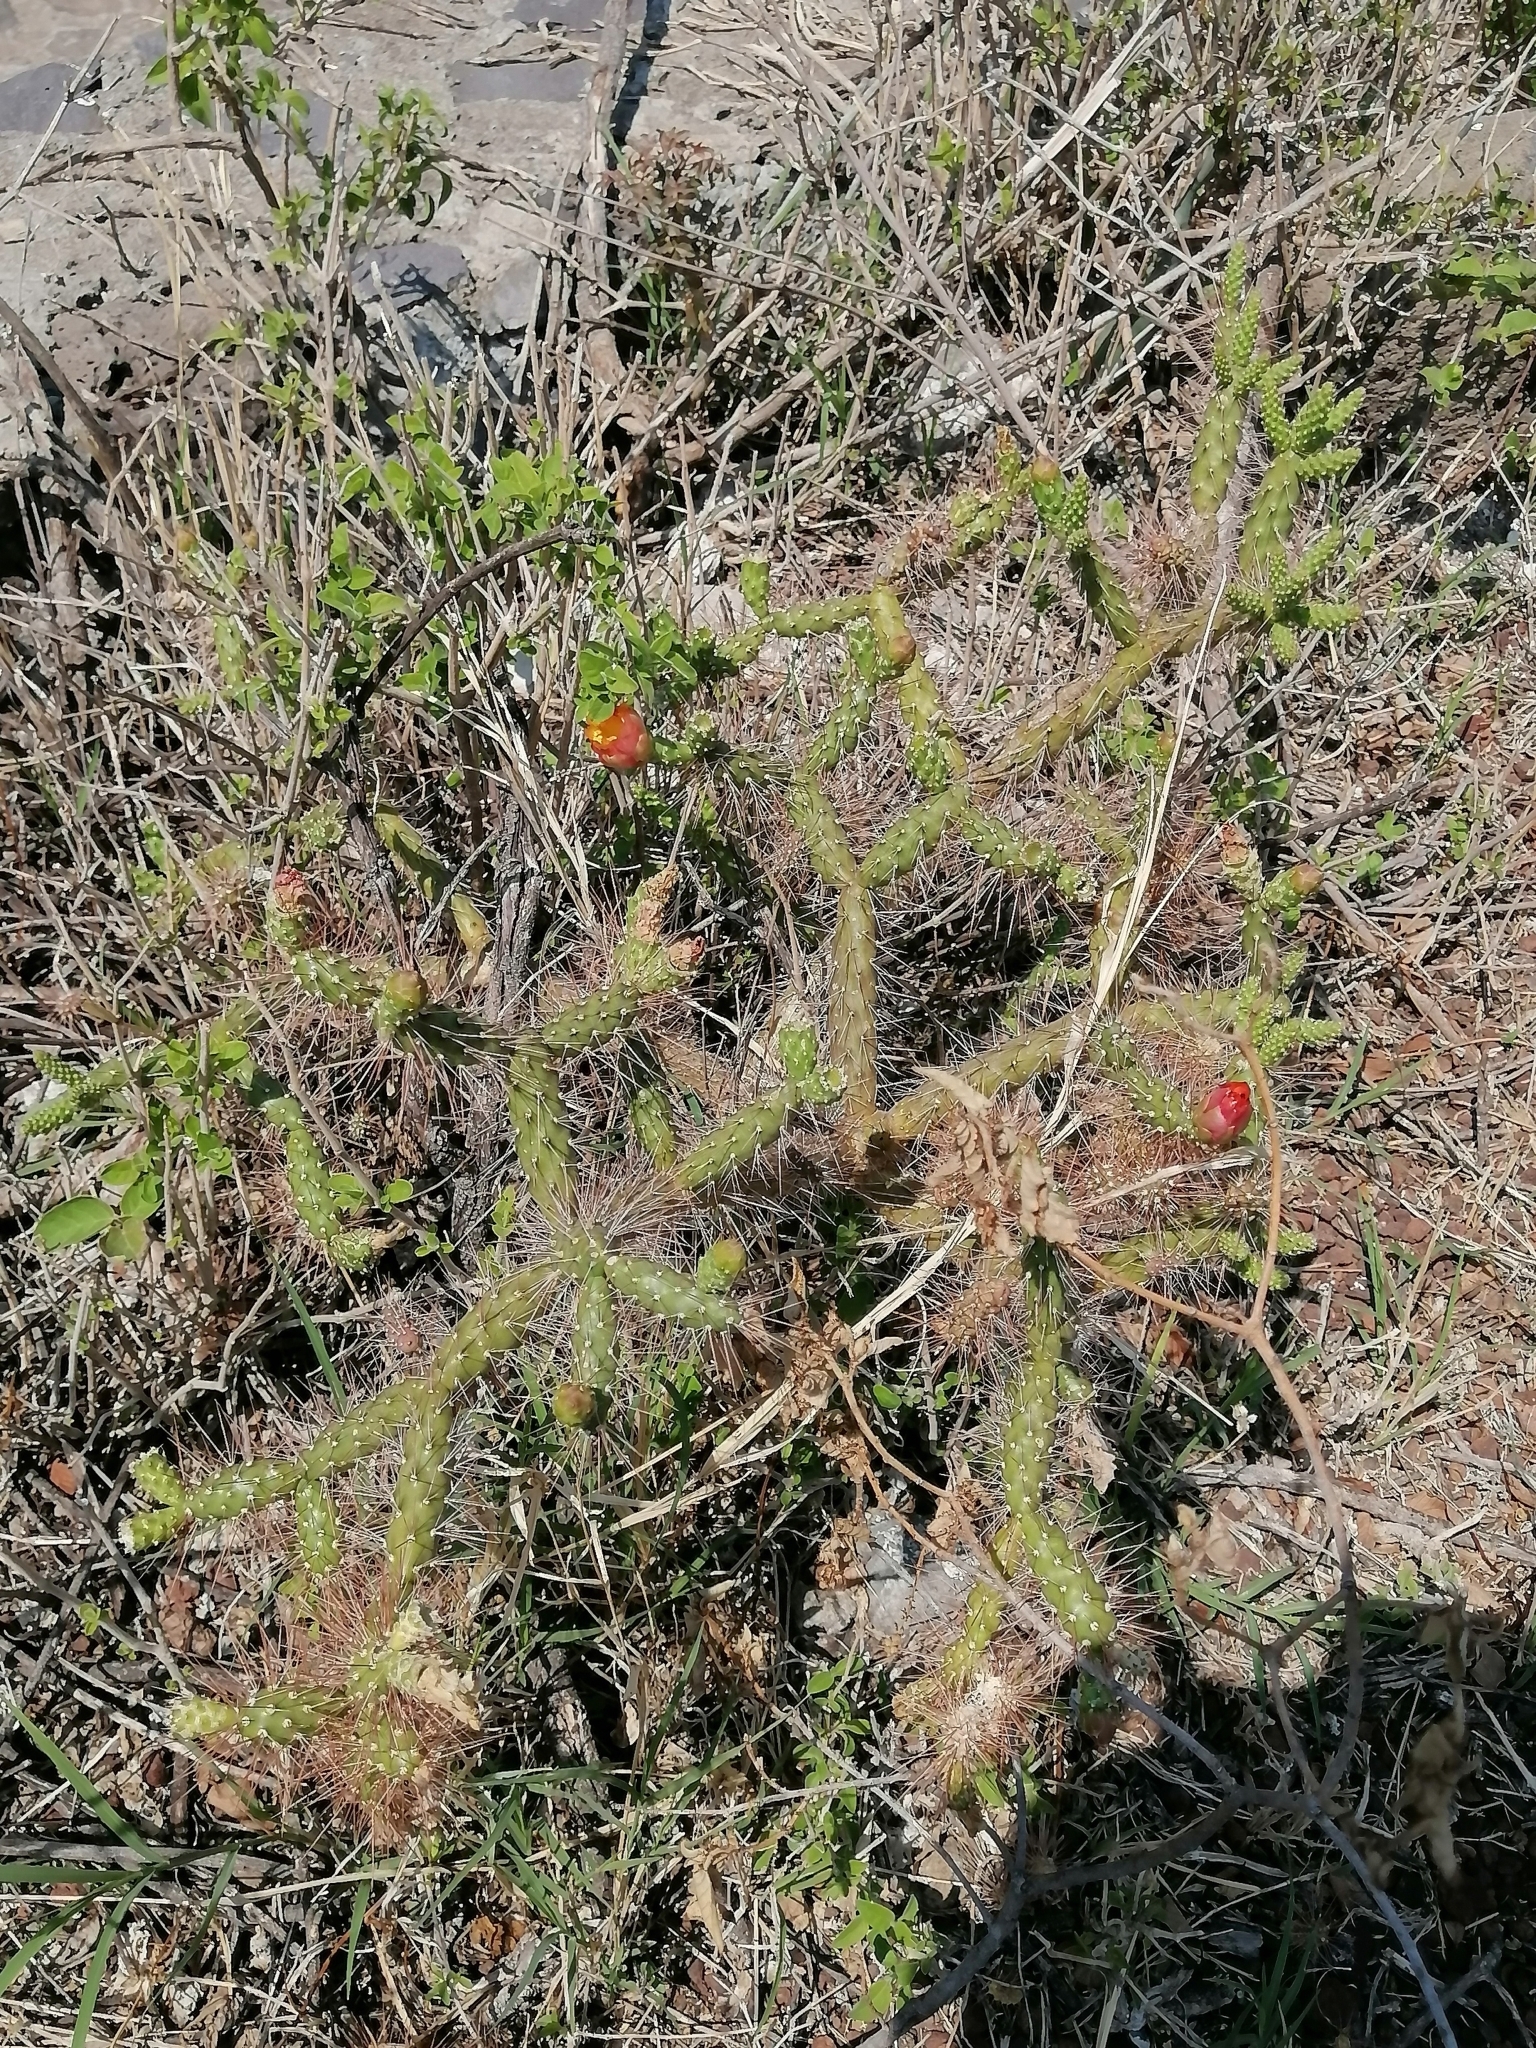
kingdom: Plantae
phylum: Tracheophyta
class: Magnoliopsida
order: Caryophyllales
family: Cactaceae
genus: Opuntia
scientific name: Opuntia pubescens
